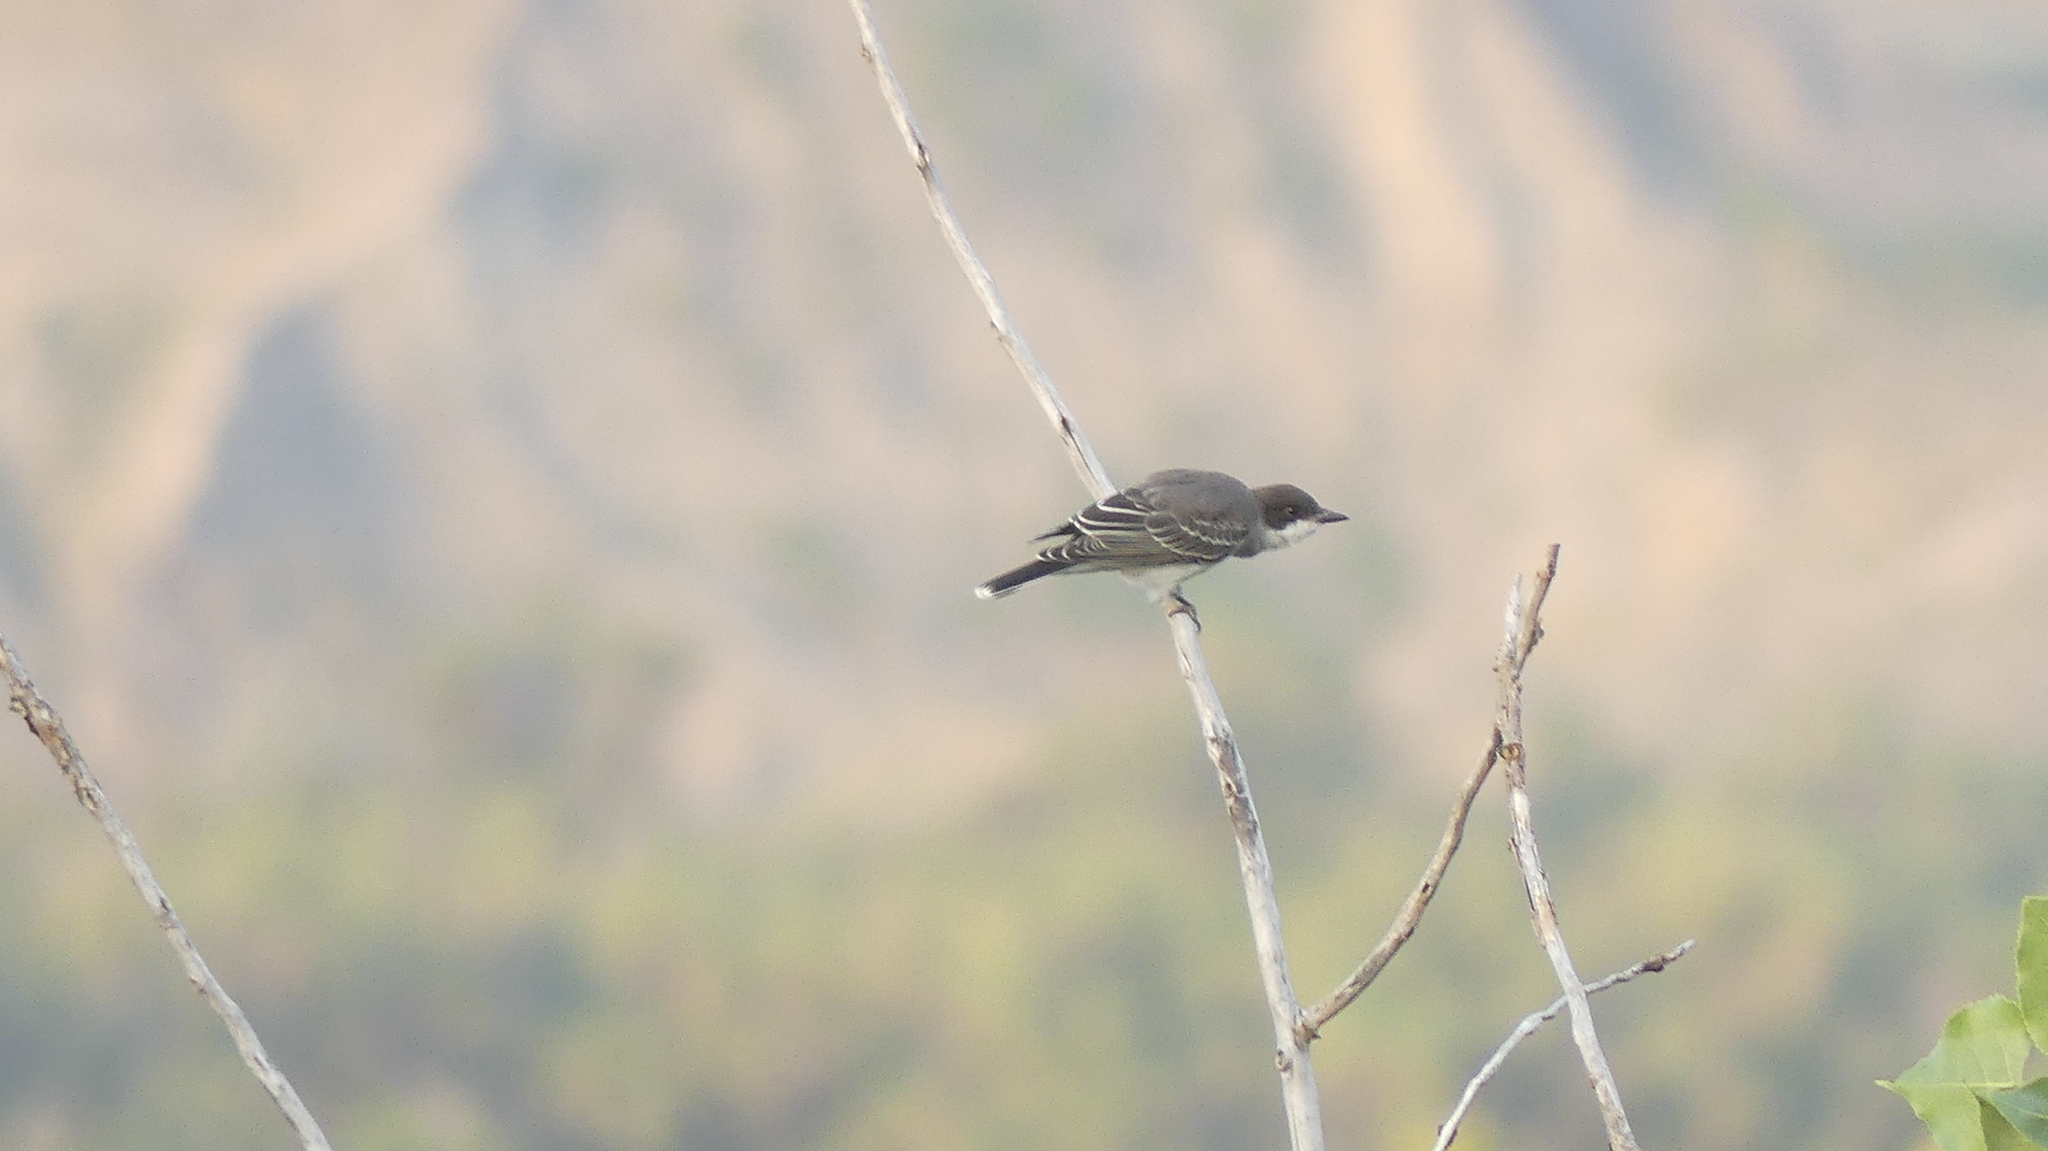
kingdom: Animalia
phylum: Chordata
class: Aves
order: Passeriformes
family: Tyrannidae
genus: Tyrannus
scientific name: Tyrannus tyrannus
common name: Eastern kingbird
